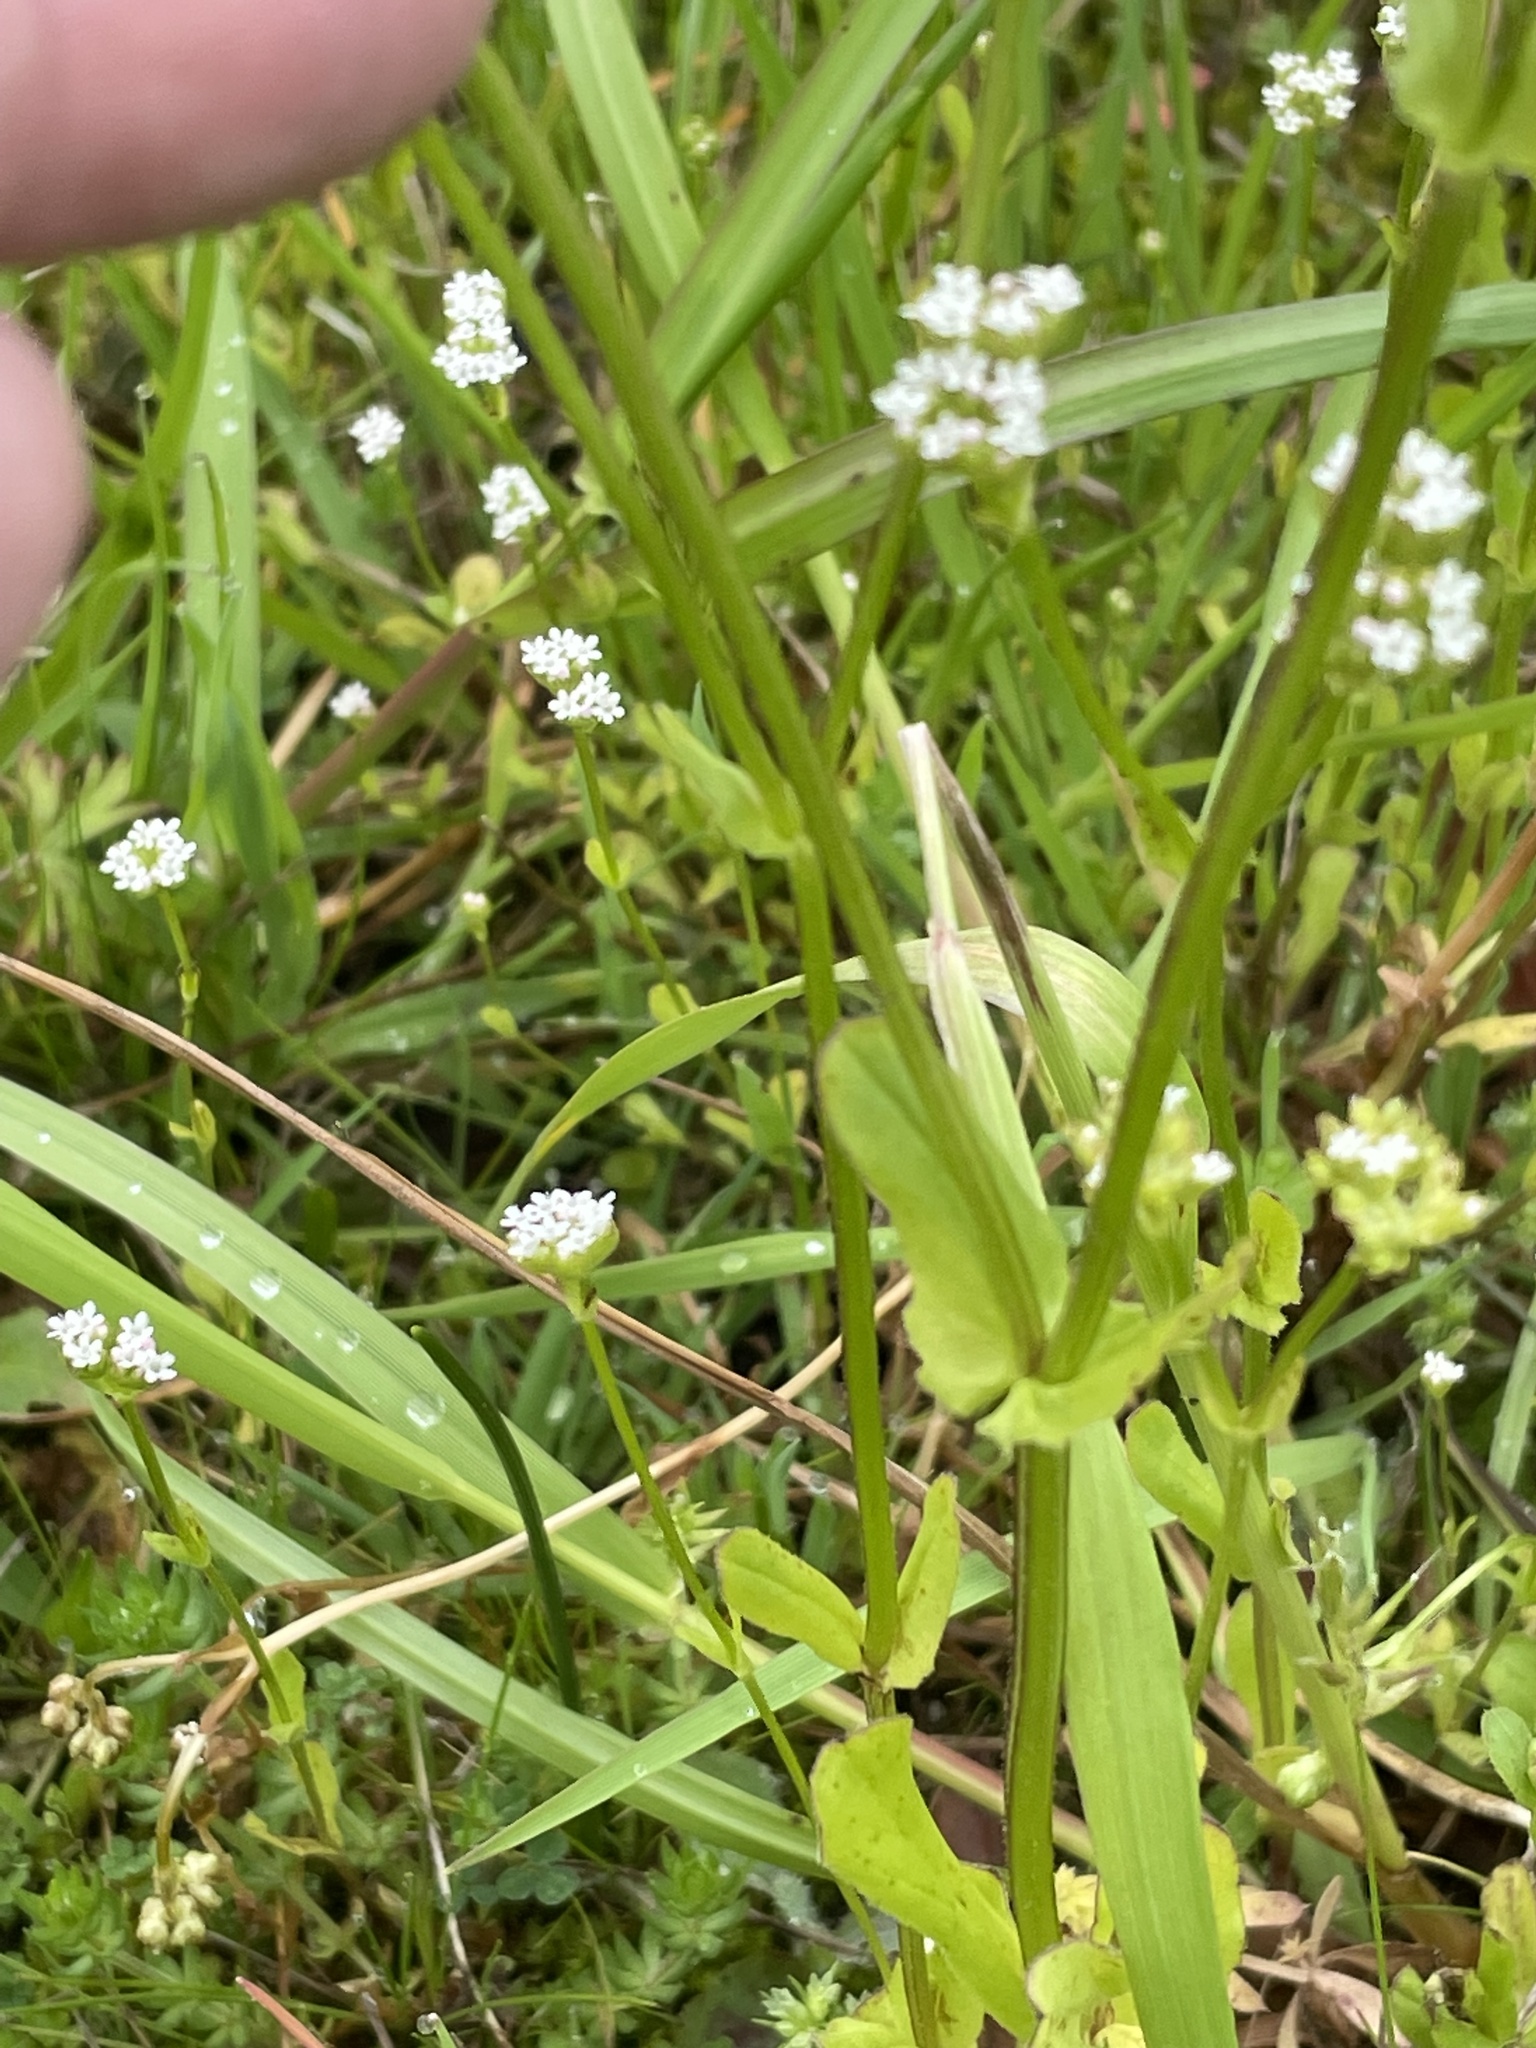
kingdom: Plantae
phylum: Tracheophyta
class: Magnoliopsida
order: Dipsacales
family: Caprifoliaceae
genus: Valerianella
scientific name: Valerianella locusta
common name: Common cornsalad
